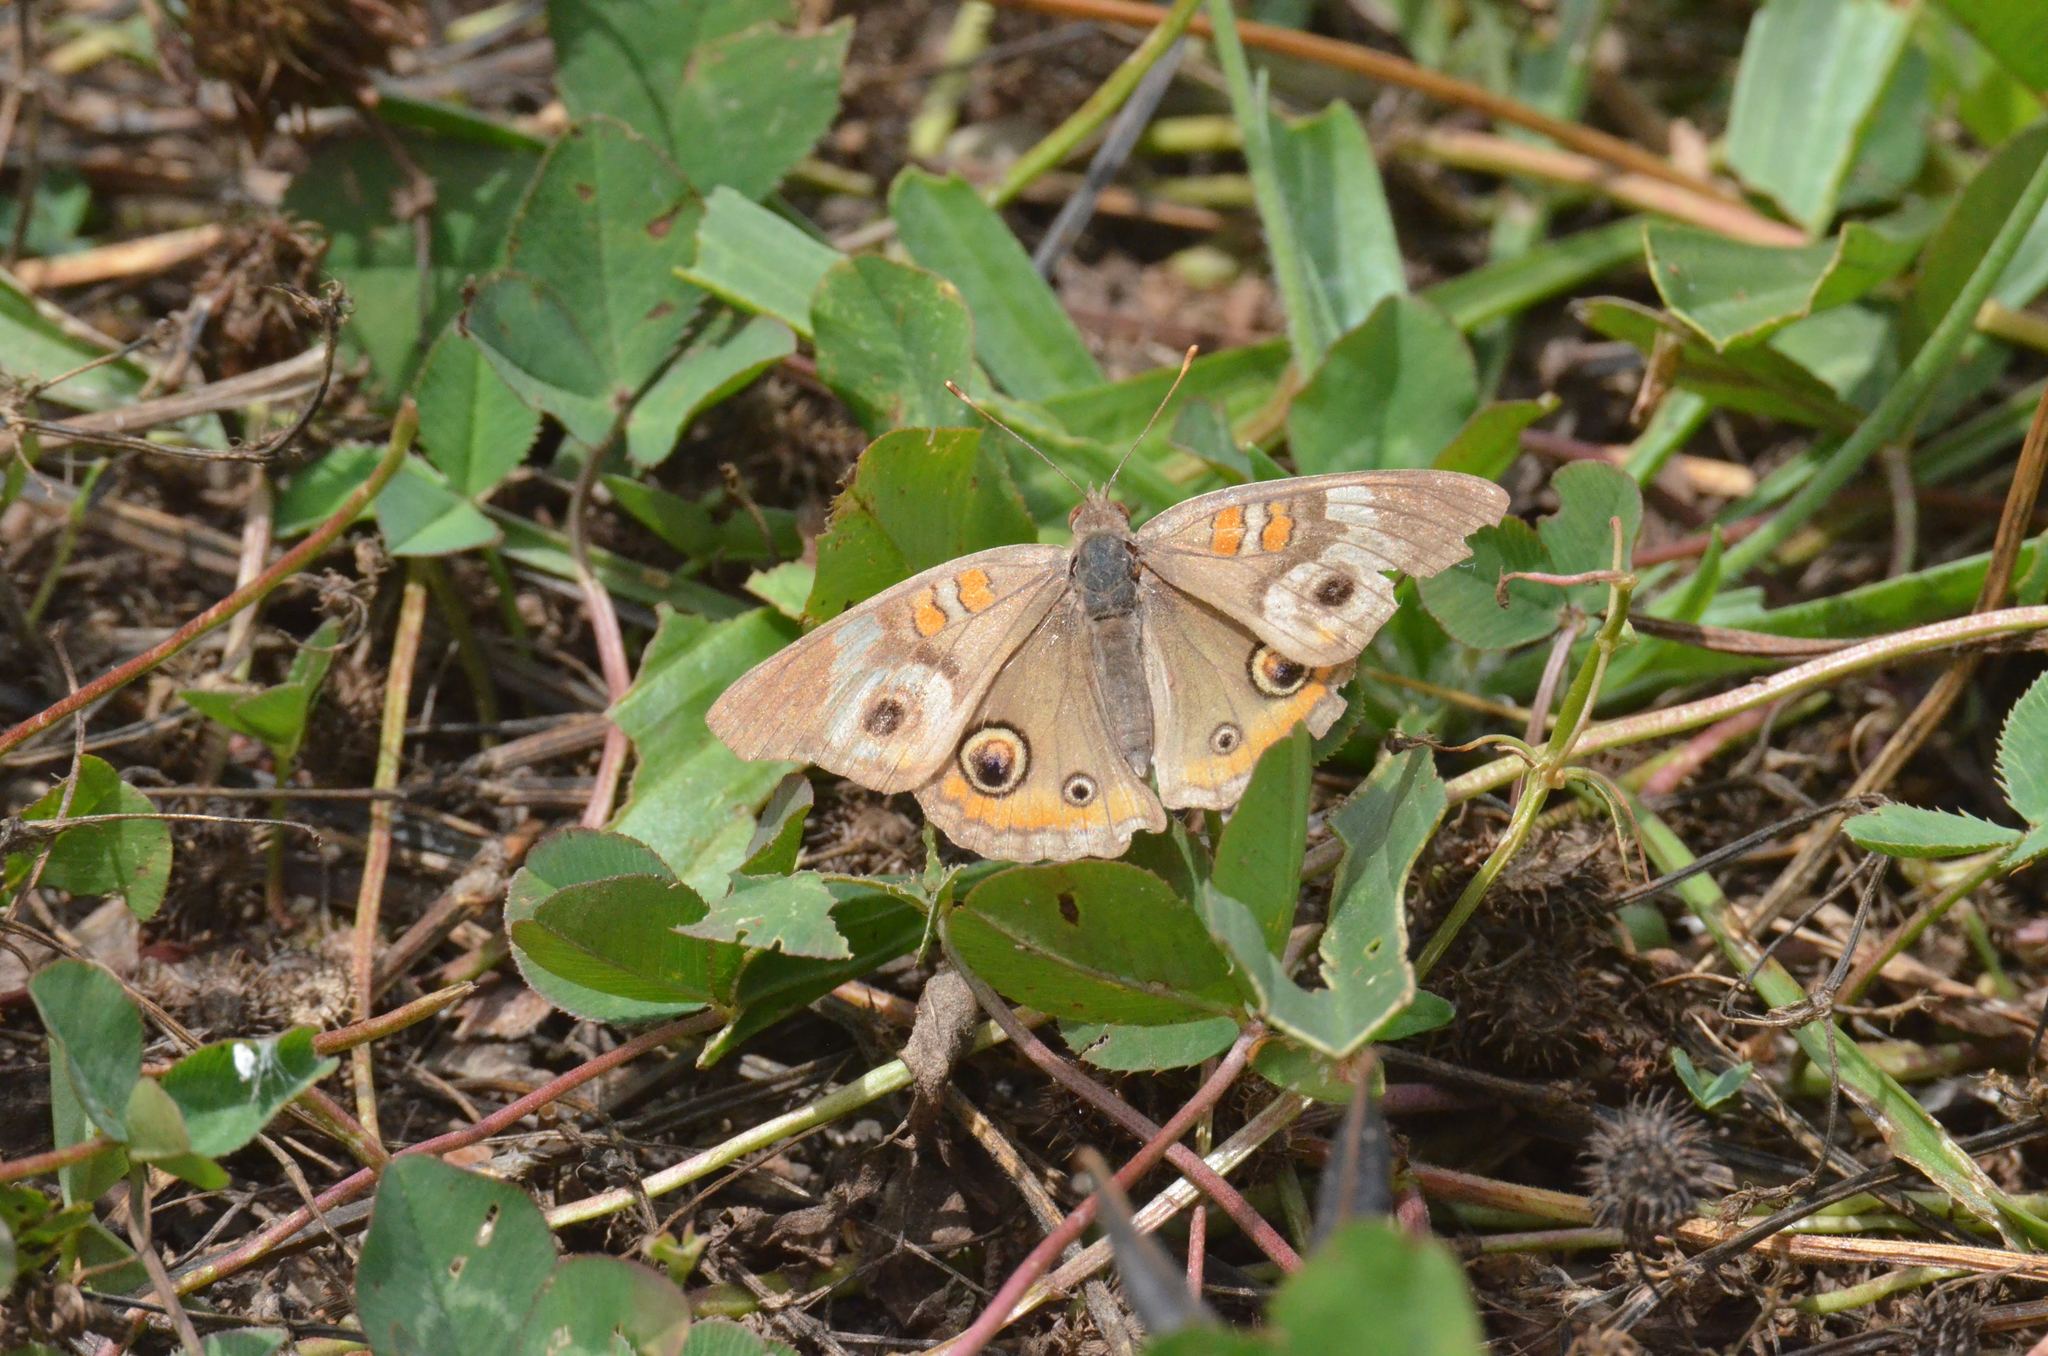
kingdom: Animalia
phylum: Arthropoda
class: Insecta
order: Lepidoptera
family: Nymphalidae
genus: Junonia
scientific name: Junonia coenia
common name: Common buckeye
